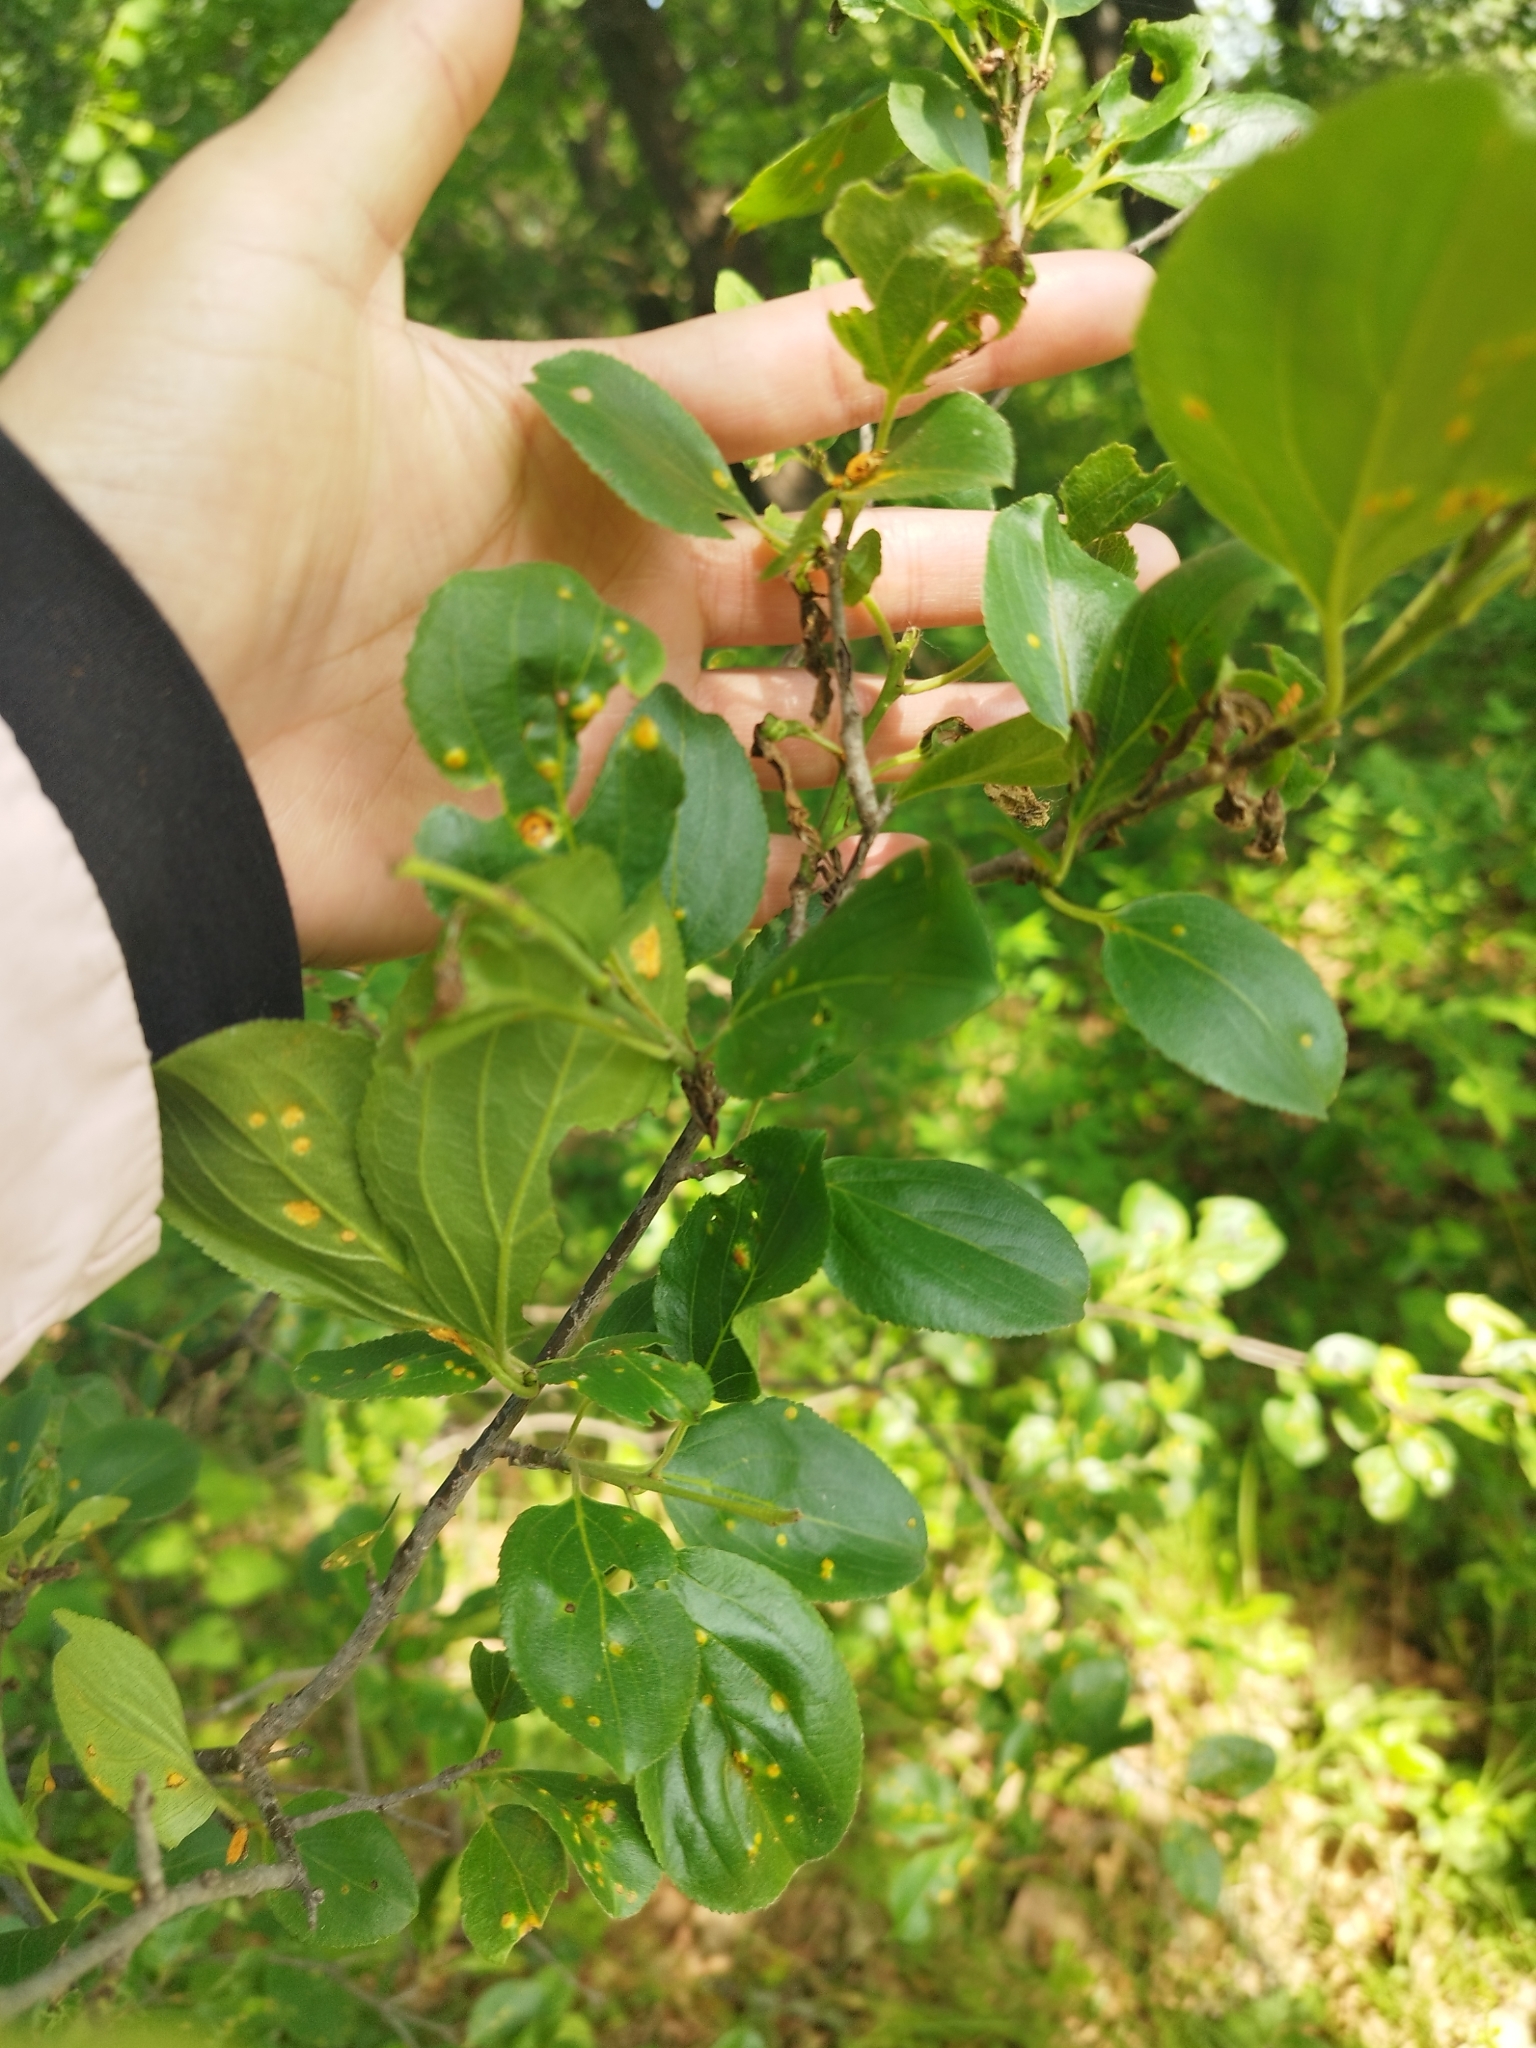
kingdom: Plantae
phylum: Tracheophyta
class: Magnoliopsida
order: Rosales
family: Rhamnaceae
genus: Rhamnus
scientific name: Rhamnus cathartica
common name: Common buckthorn
